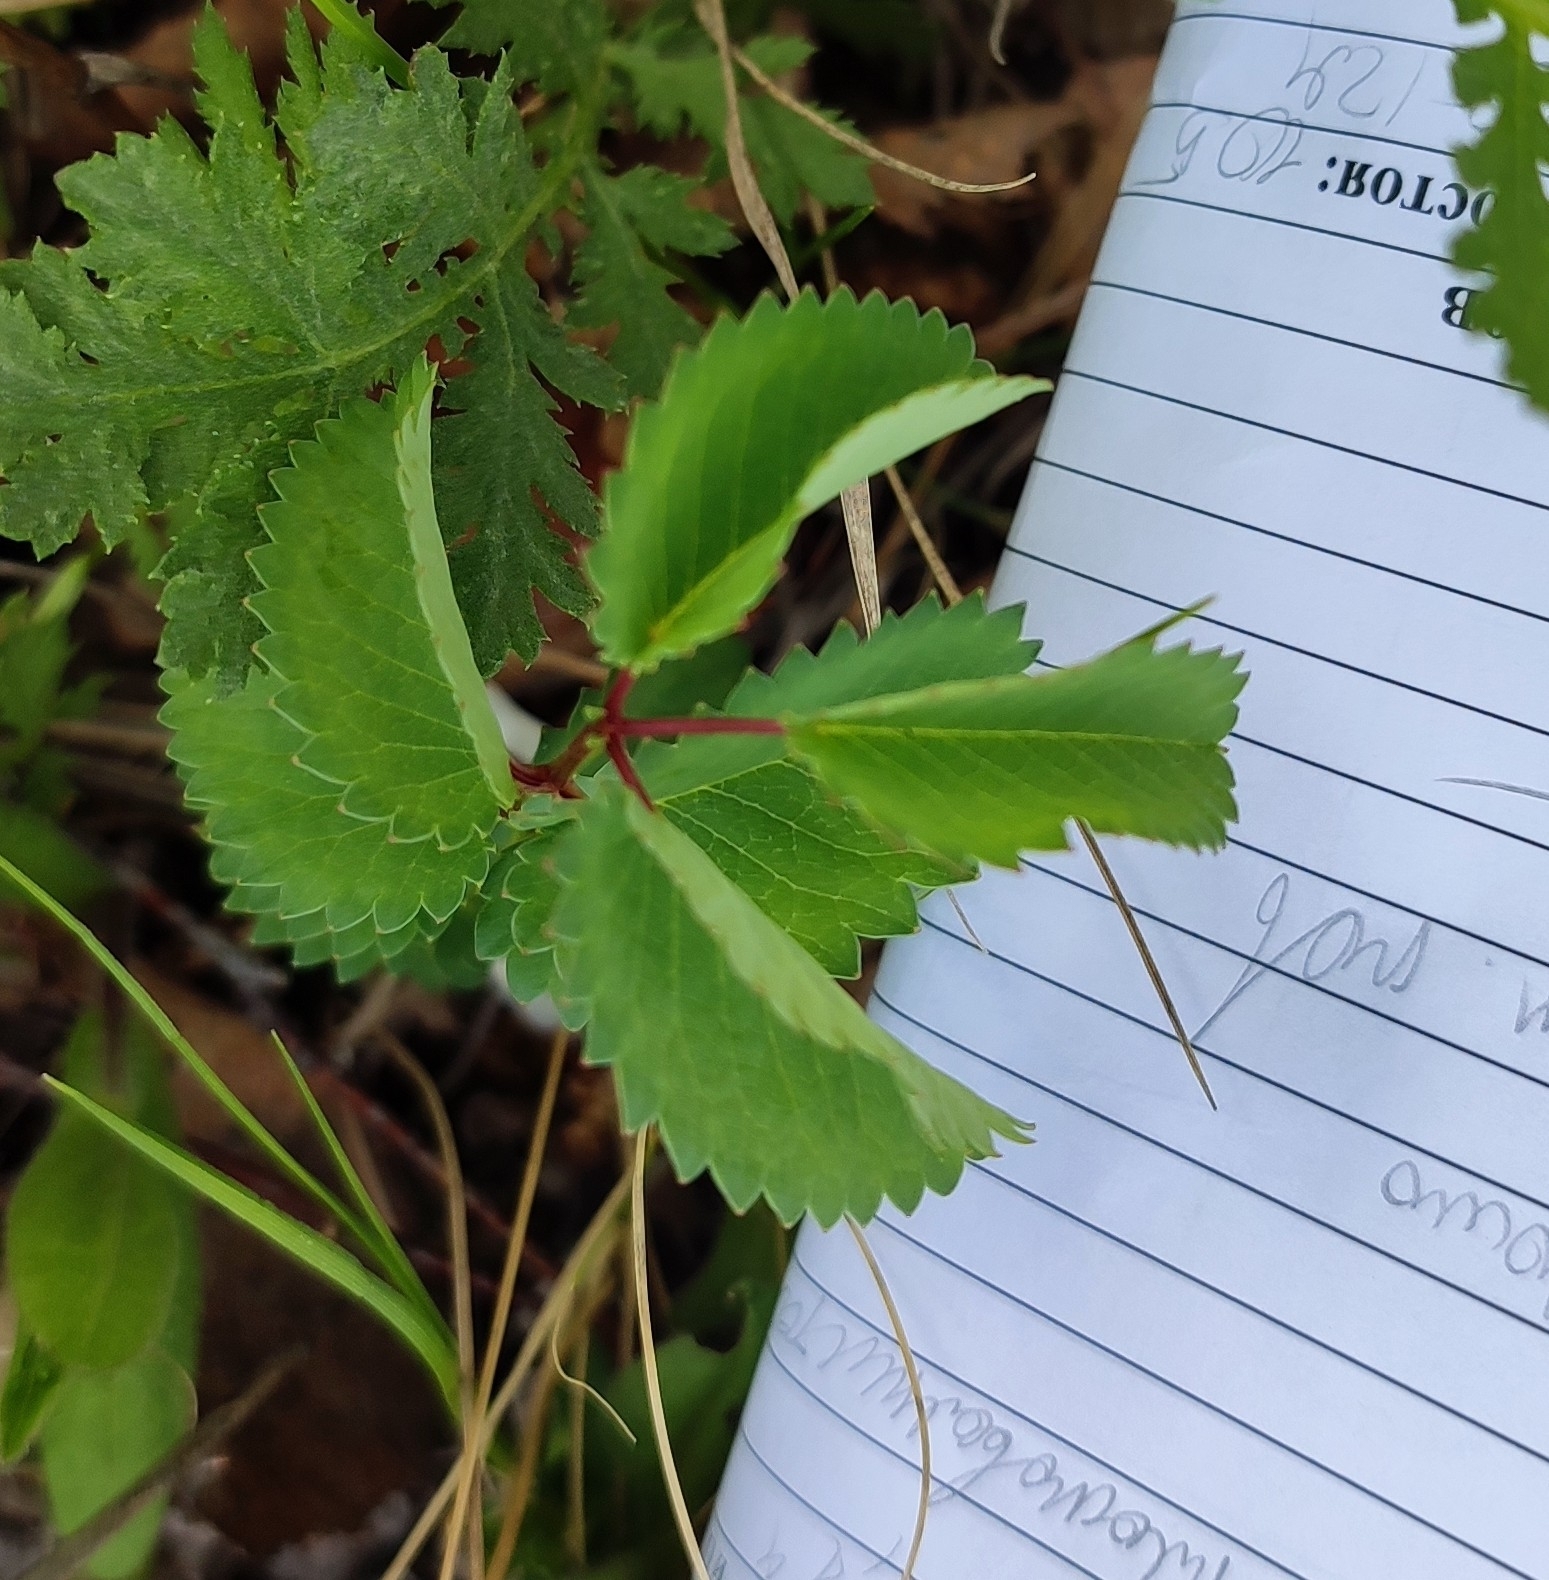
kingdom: Plantae
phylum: Tracheophyta
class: Magnoliopsida
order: Rosales
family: Rosaceae
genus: Sanguisorba
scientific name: Sanguisorba officinalis
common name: Great burnet
